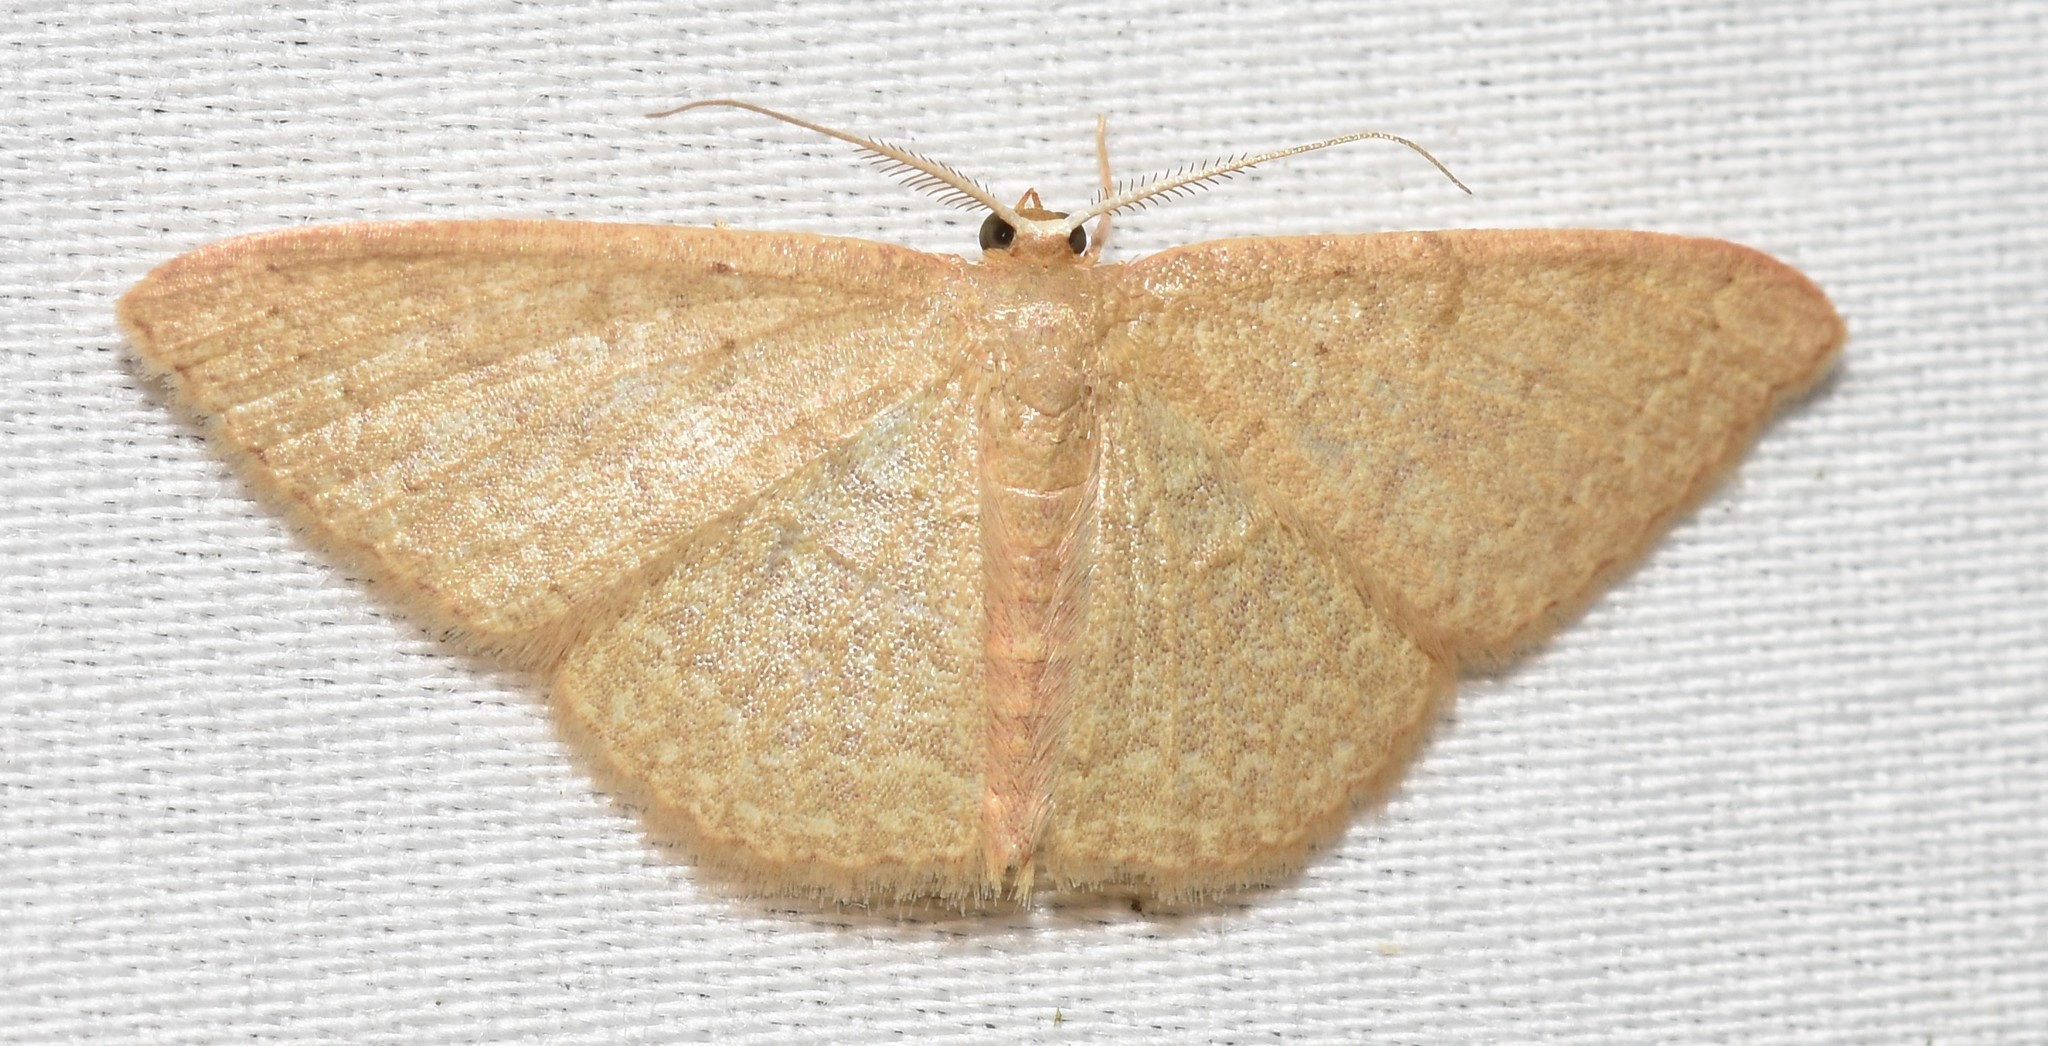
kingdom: Animalia
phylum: Arthropoda
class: Insecta
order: Lepidoptera
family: Geometridae
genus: Pleuroprucha
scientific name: Pleuroprucha insulsaria
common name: Common tan wave
